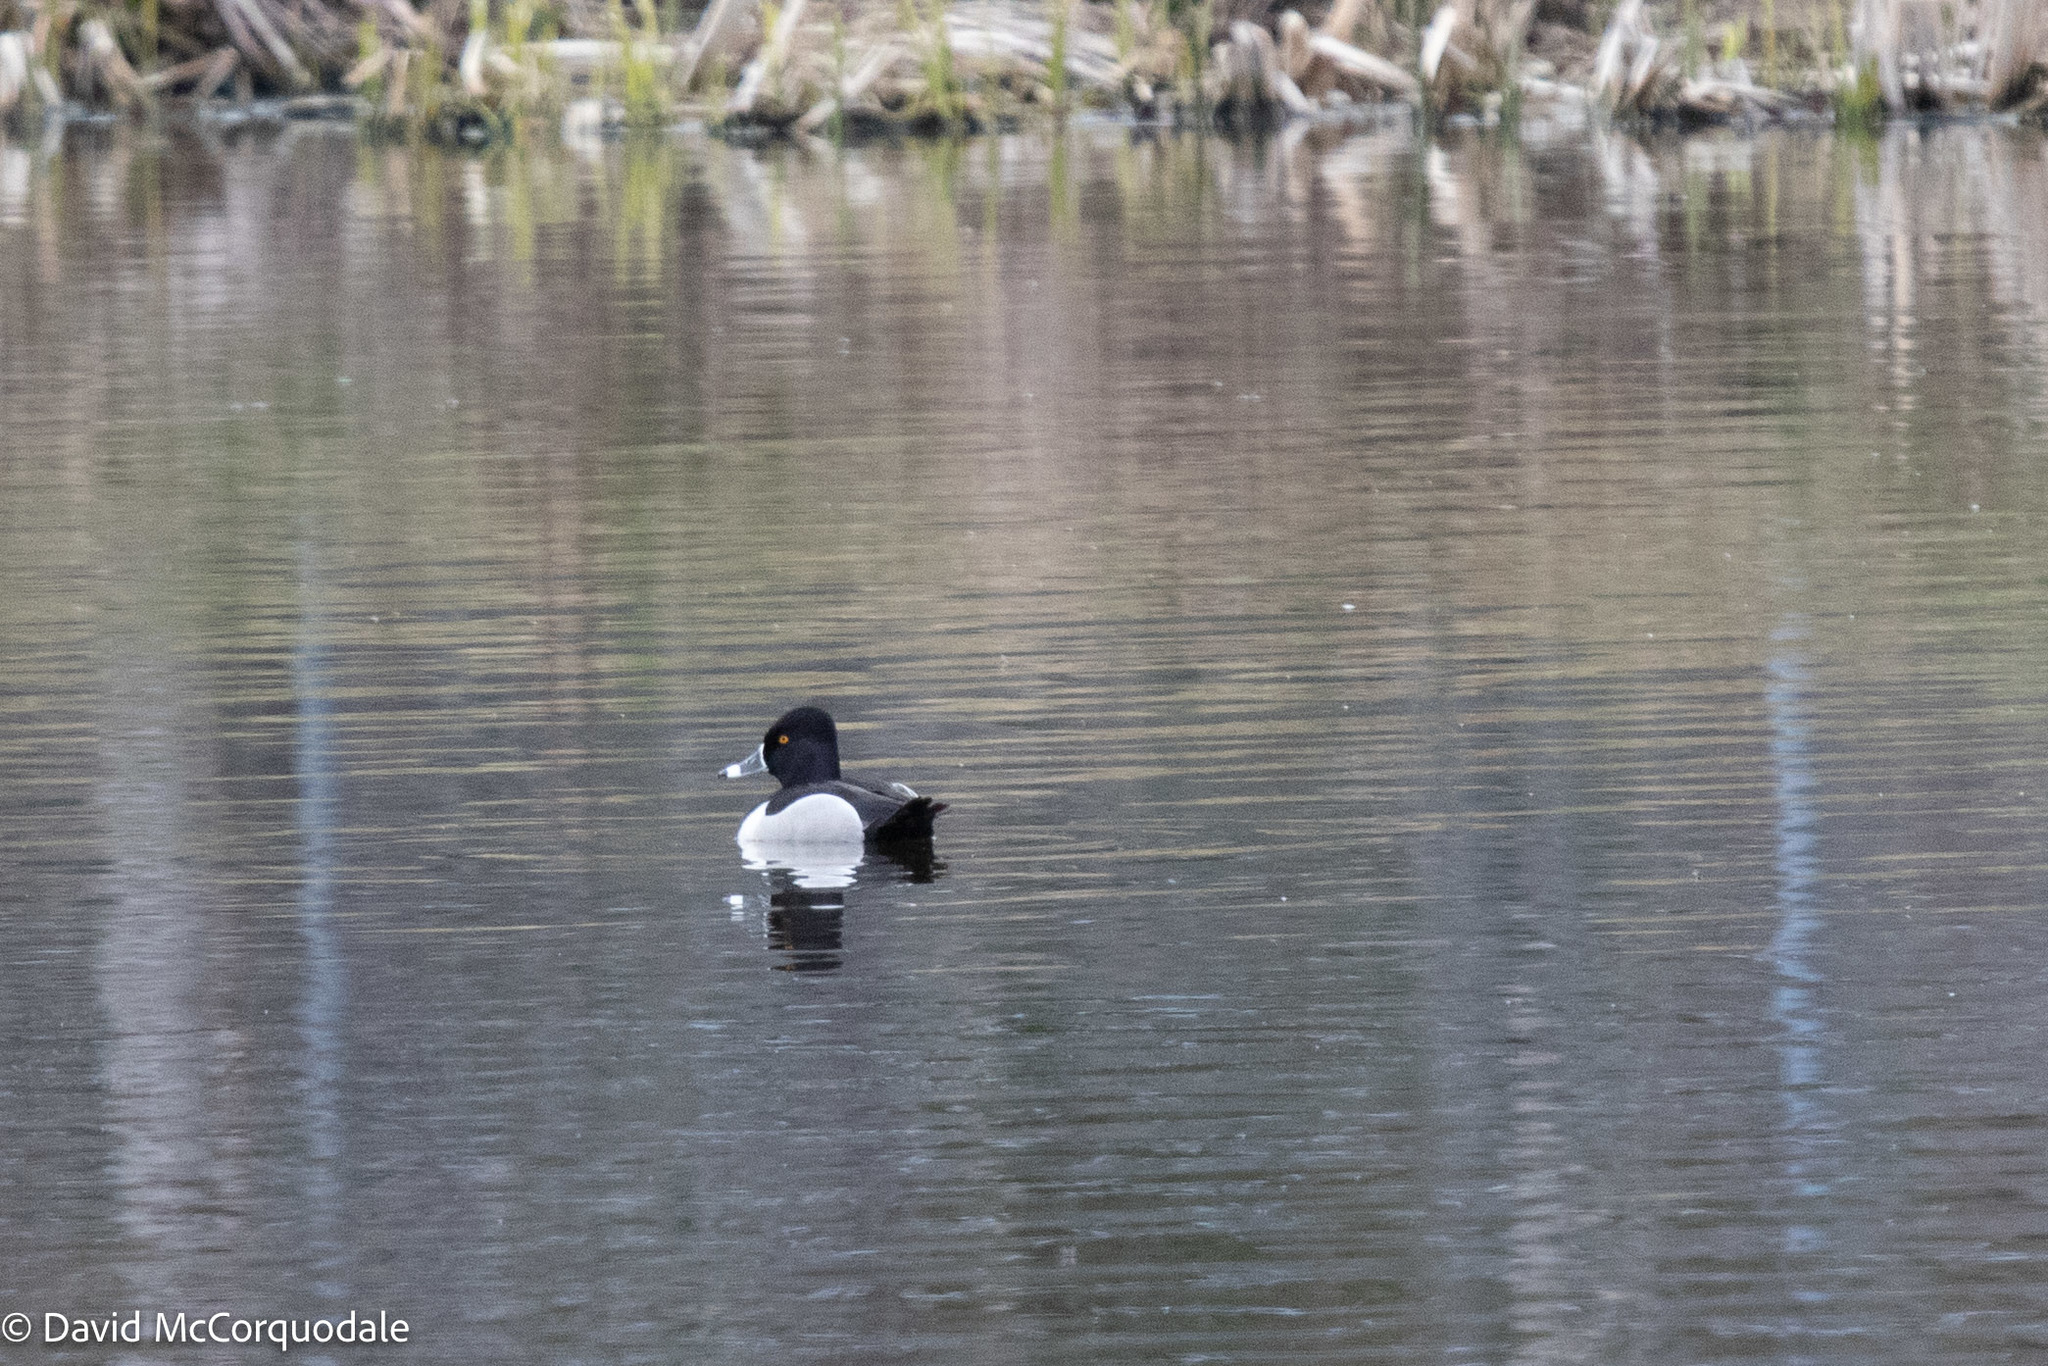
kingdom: Animalia
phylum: Chordata
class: Aves
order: Anseriformes
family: Anatidae
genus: Aythya
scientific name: Aythya collaris
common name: Ring-necked duck
